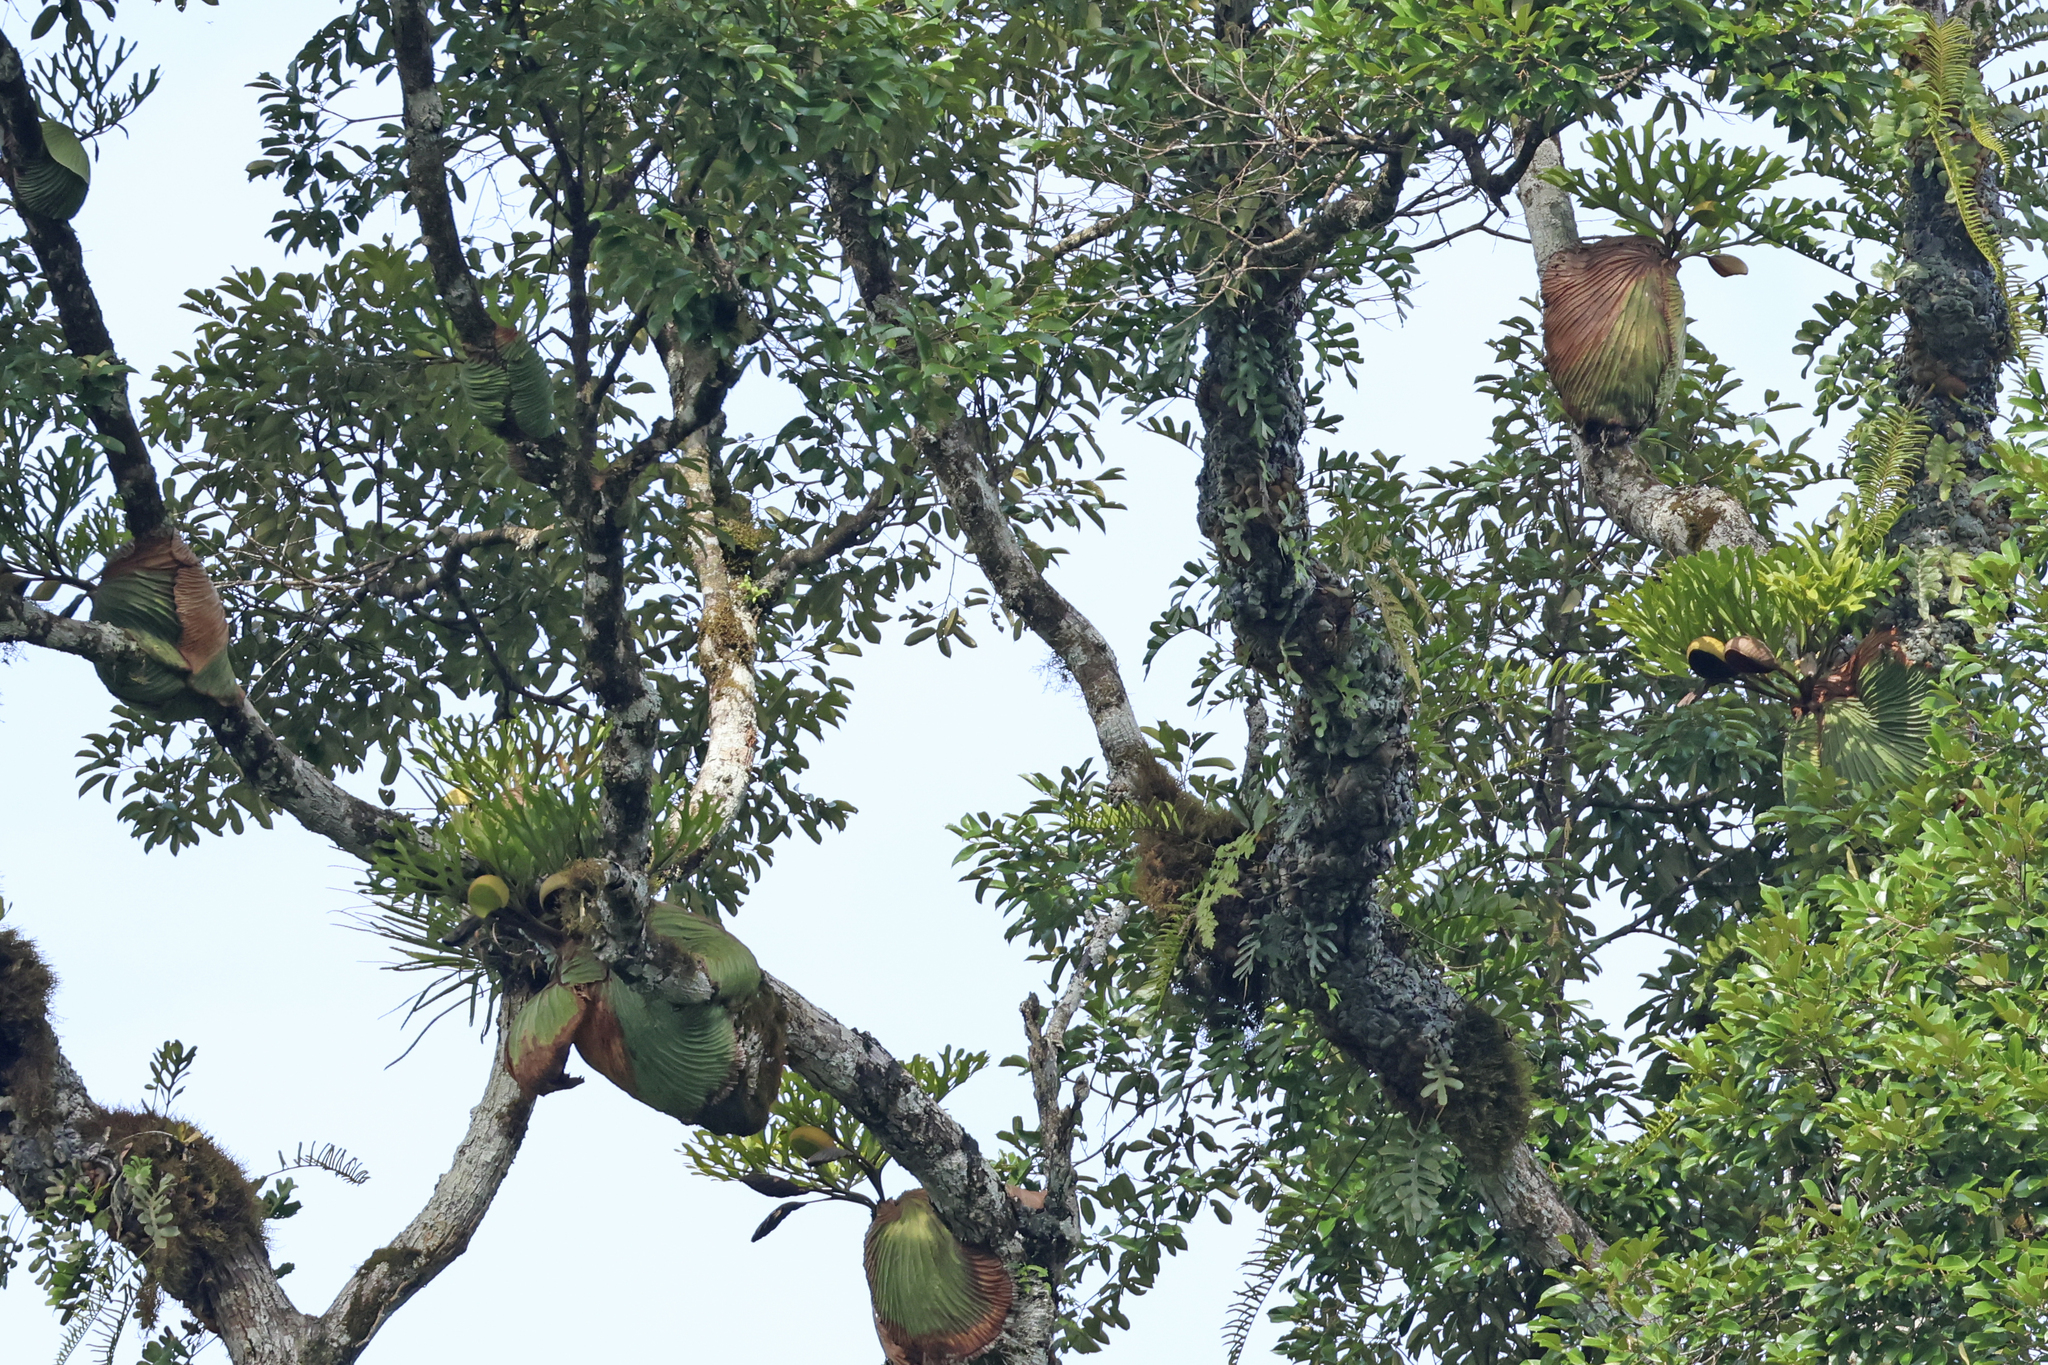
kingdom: Plantae
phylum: Tracheophyta
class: Polypodiopsida
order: Polypodiales
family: Polypodiaceae
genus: Platycerium
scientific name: Platycerium ridleyi
